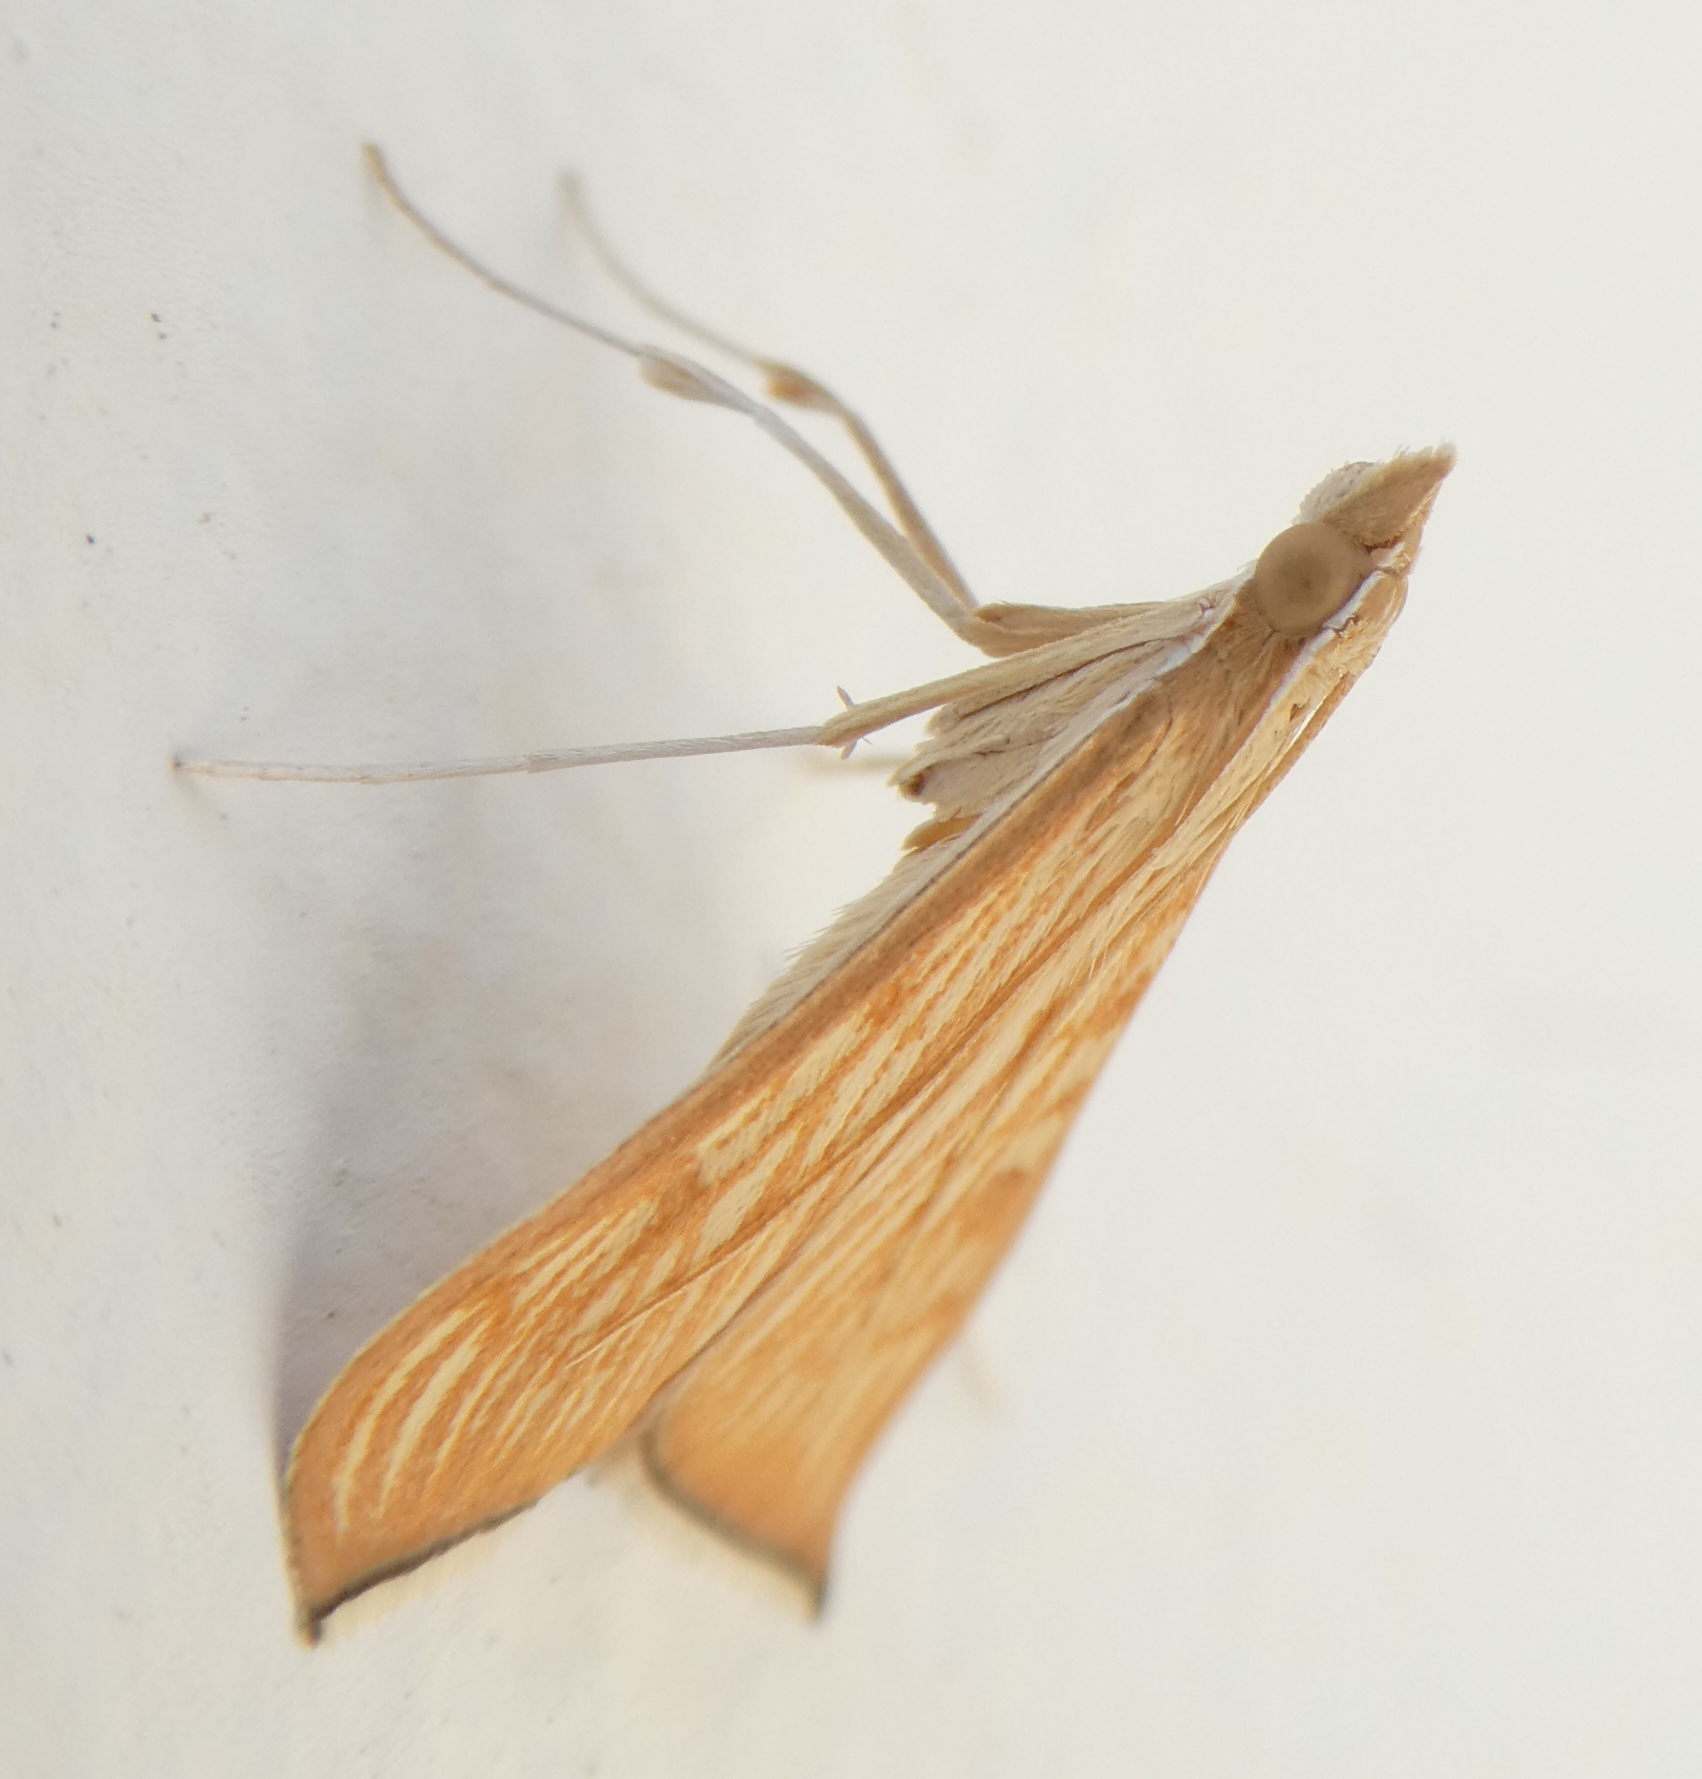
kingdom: Animalia
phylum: Arthropoda
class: Insecta
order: Lepidoptera
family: Crambidae
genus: Antigastra
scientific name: Antigastra catalaunalis
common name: Spanish dot
